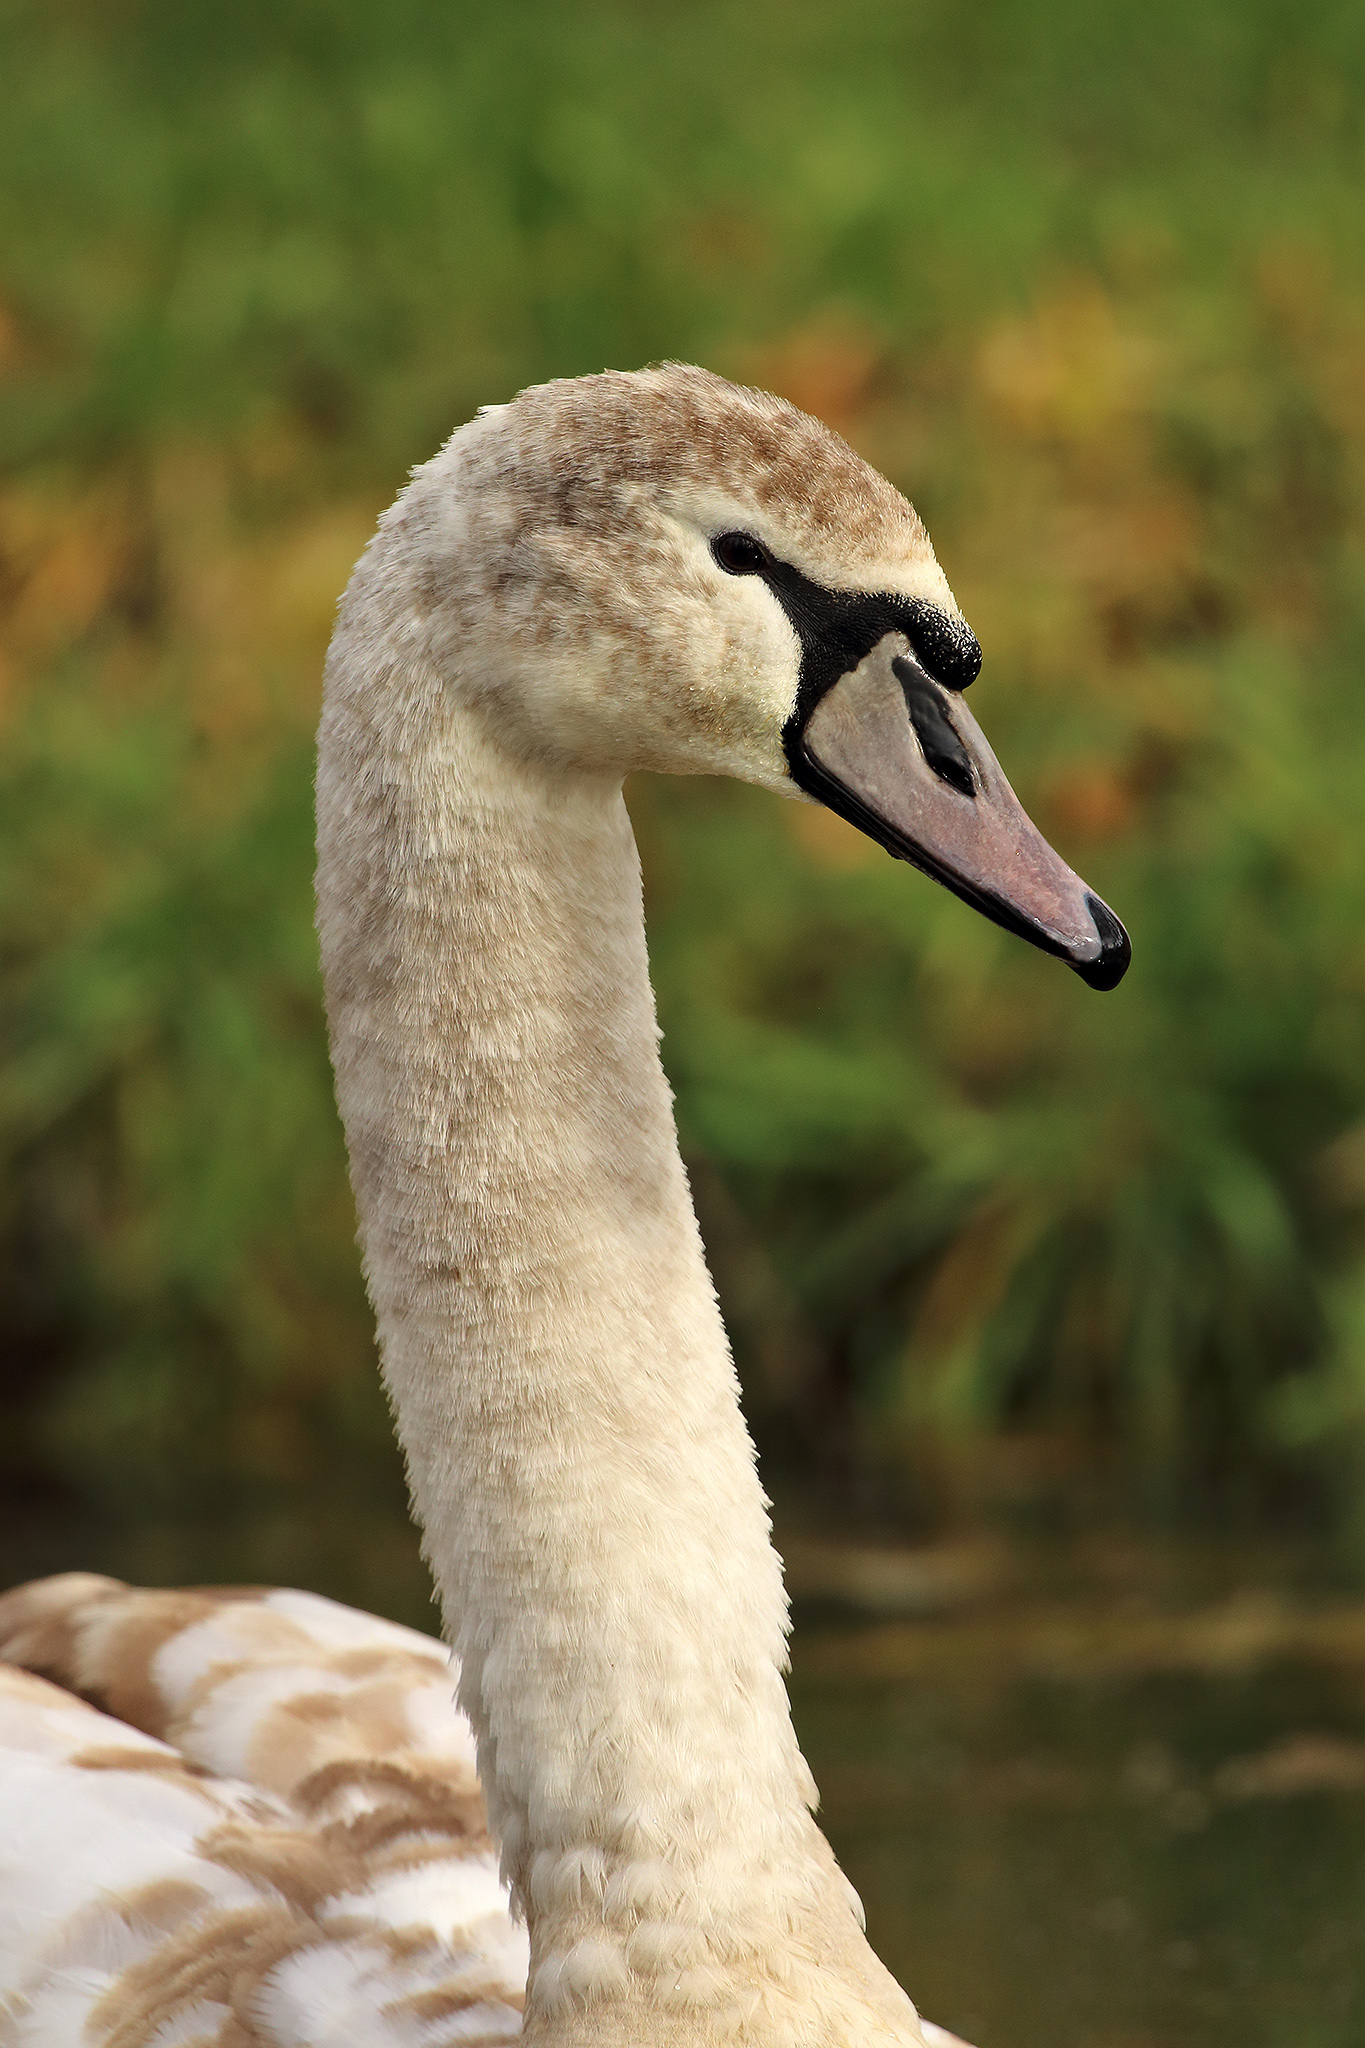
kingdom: Animalia
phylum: Chordata
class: Aves
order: Anseriformes
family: Anatidae
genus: Cygnus
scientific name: Cygnus olor
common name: Mute swan
